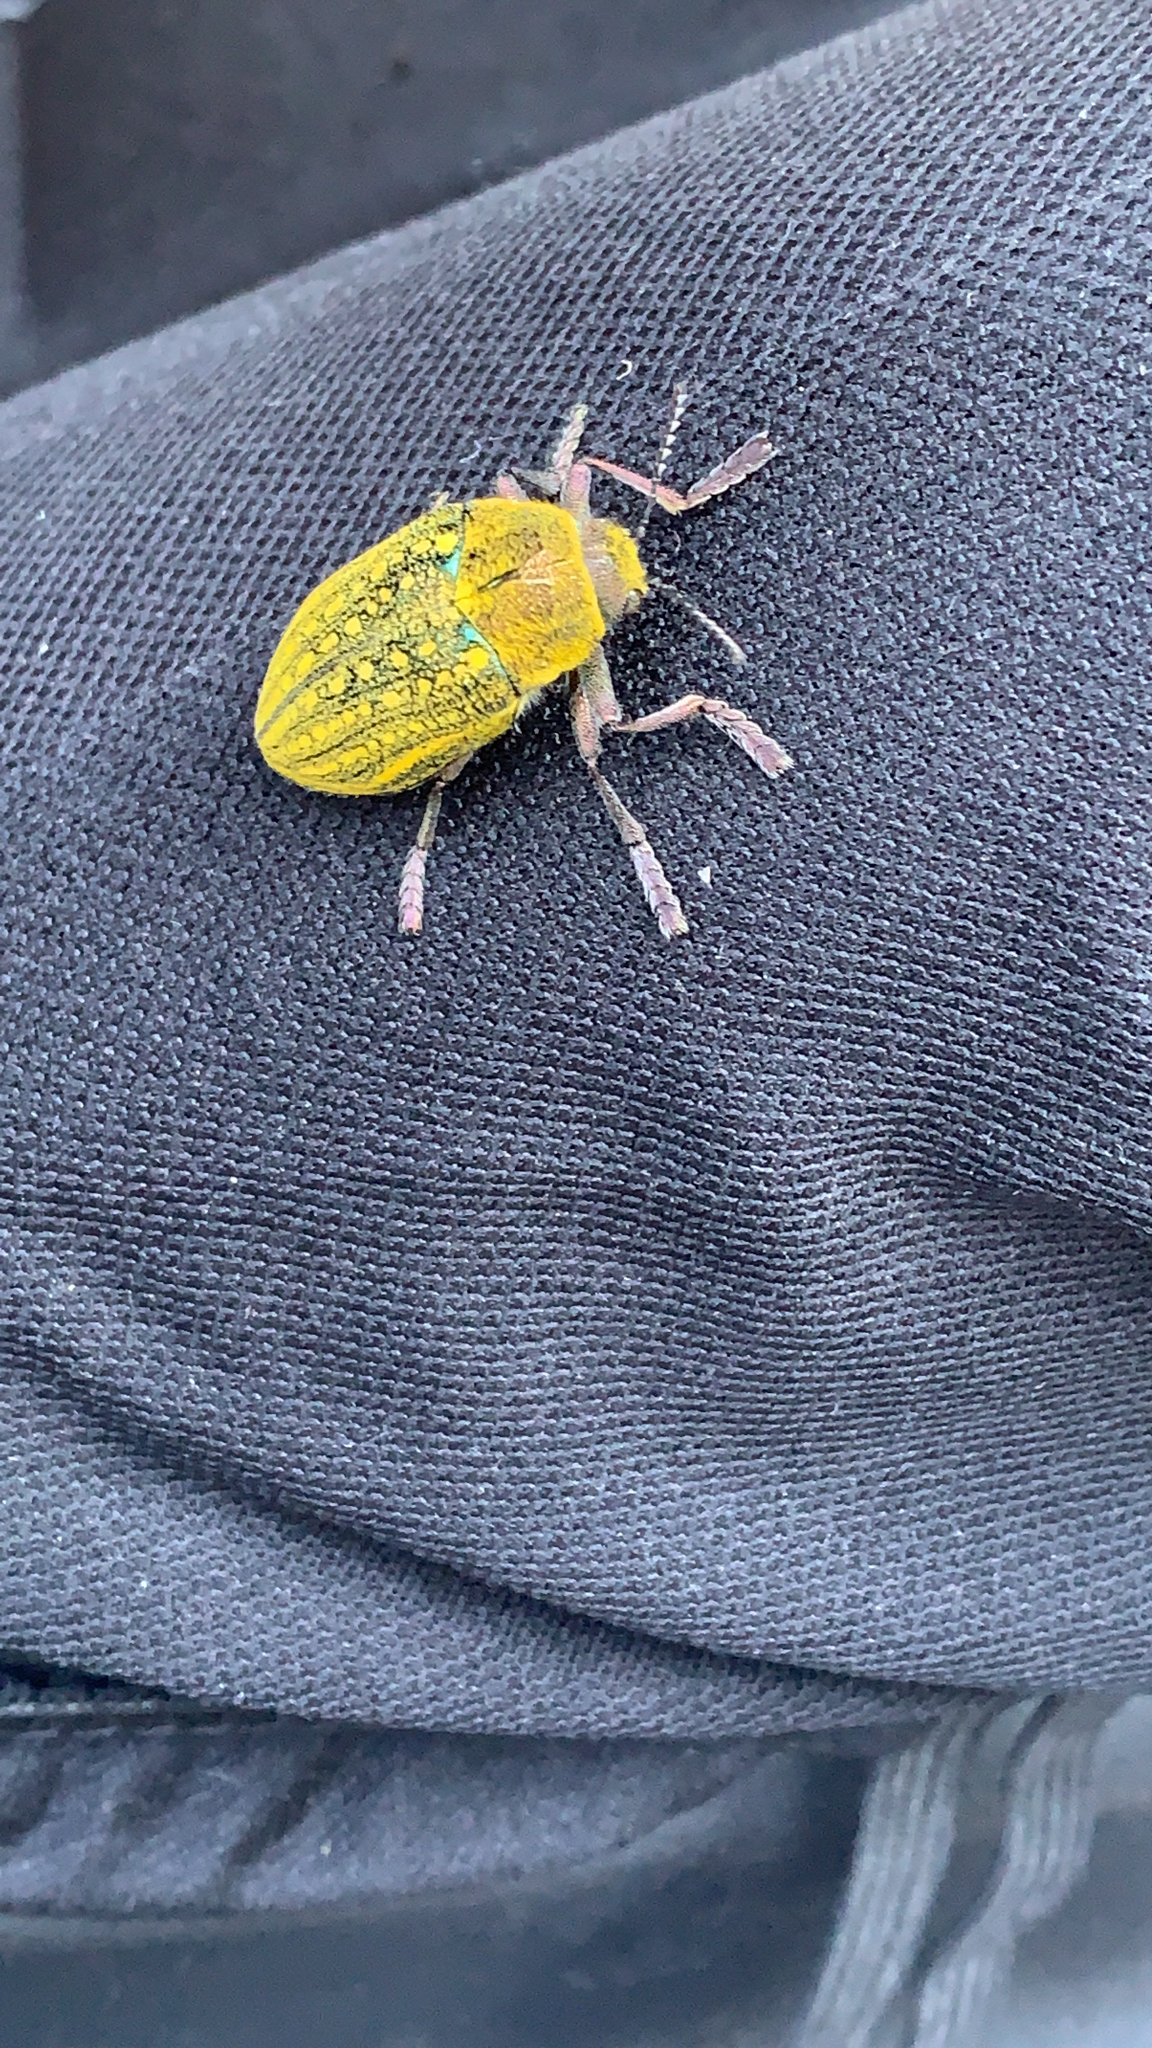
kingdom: Animalia
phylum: Arthropoda
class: Insecta
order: Coleoptera
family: Buprestidae
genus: Julodis
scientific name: Julodis ehrenbergii
